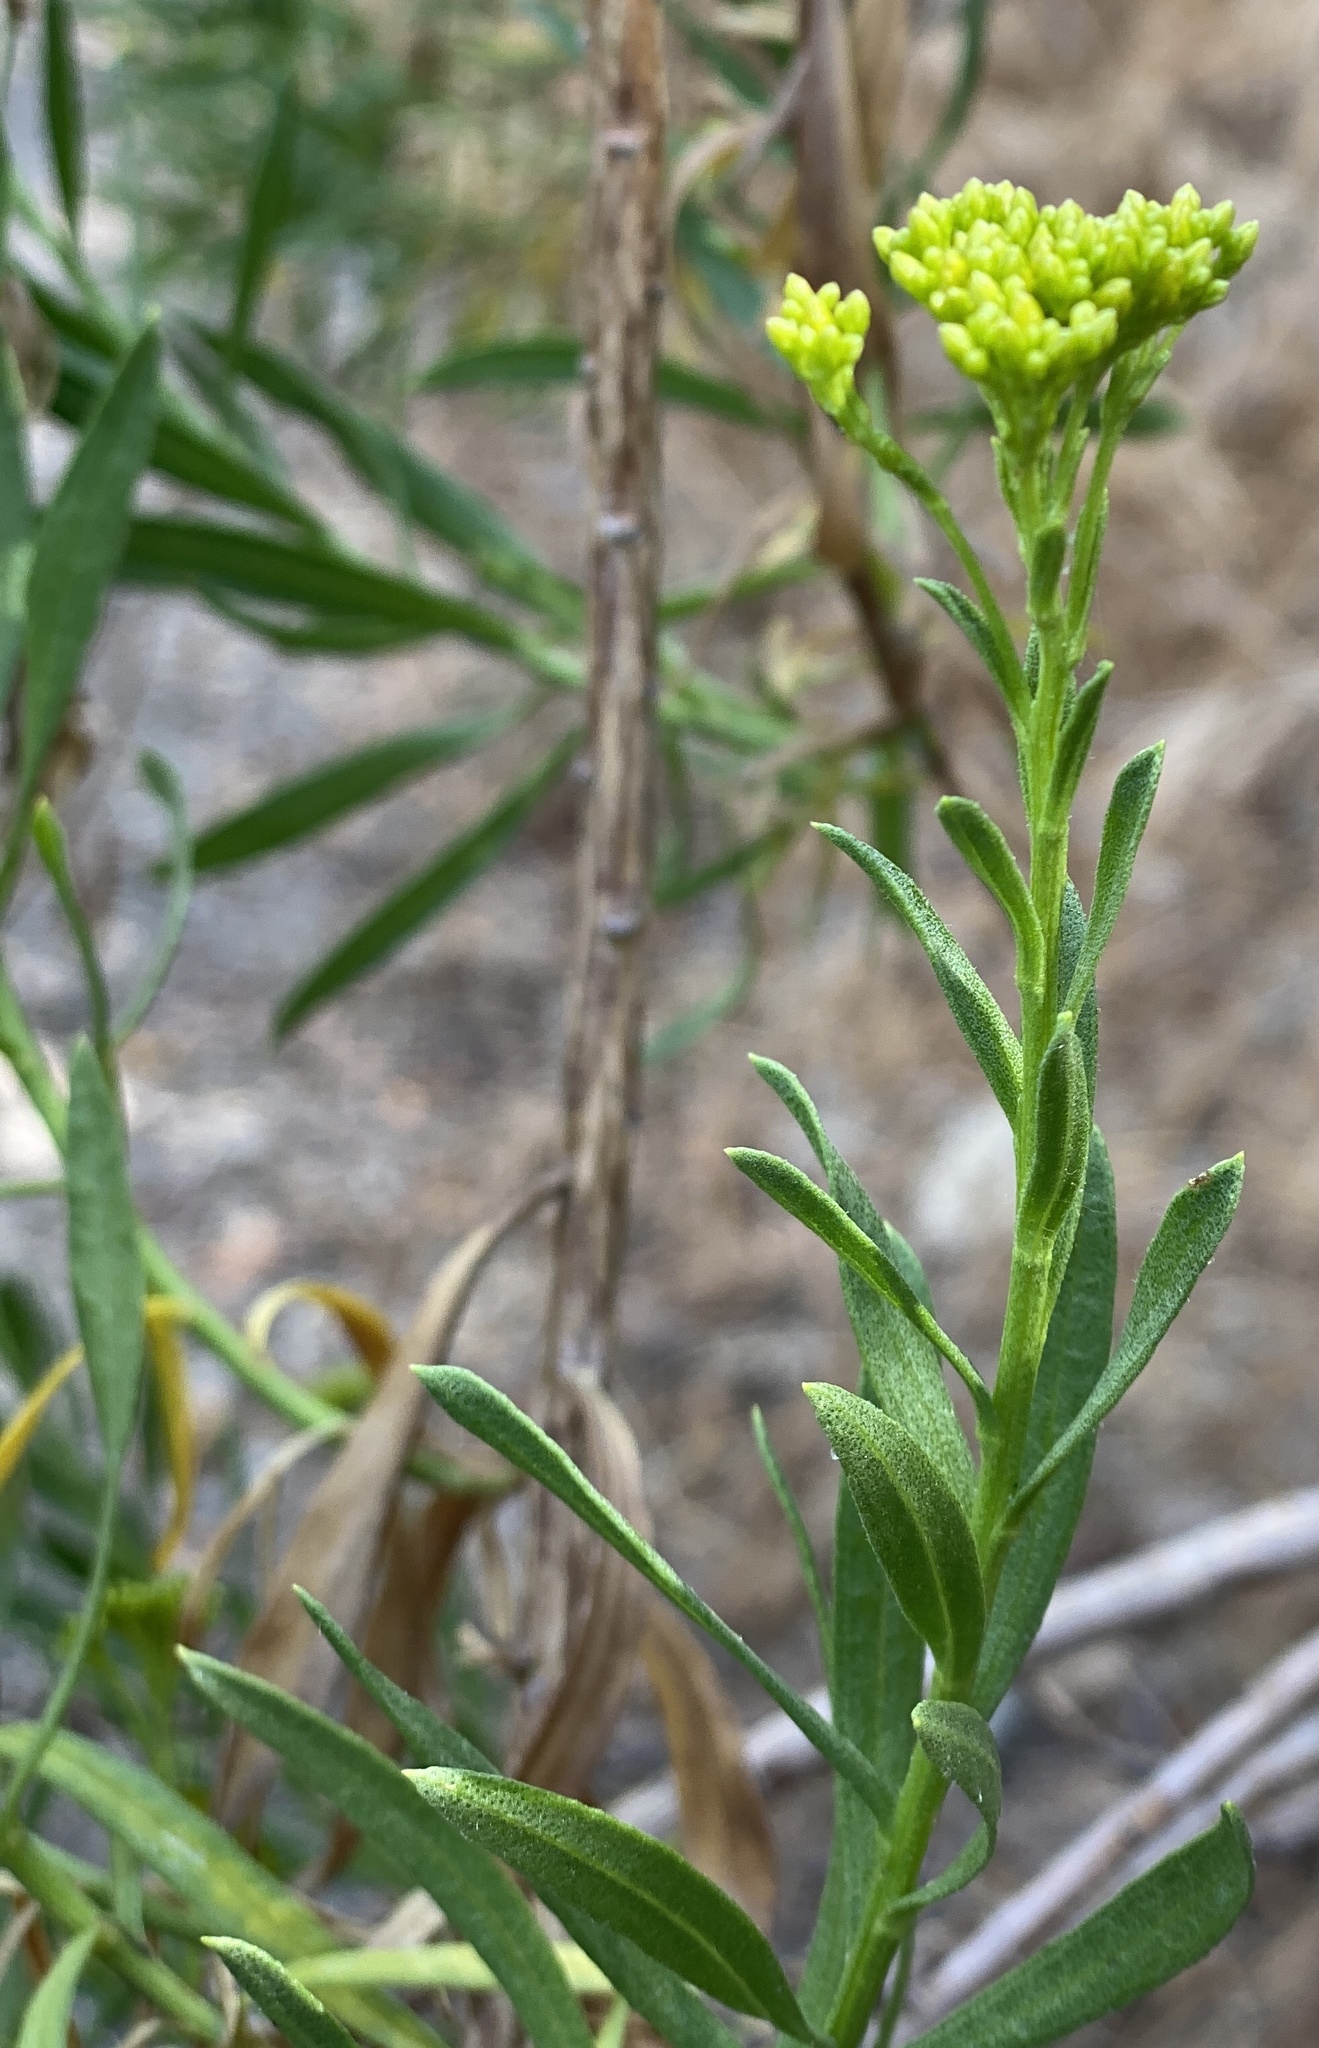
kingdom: Plantae
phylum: Tracheophyta
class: Magnoliopsida
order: Asterales
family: Asteraceae
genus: Ericameria
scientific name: Ericameria parishii
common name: Parish's goldenbush
